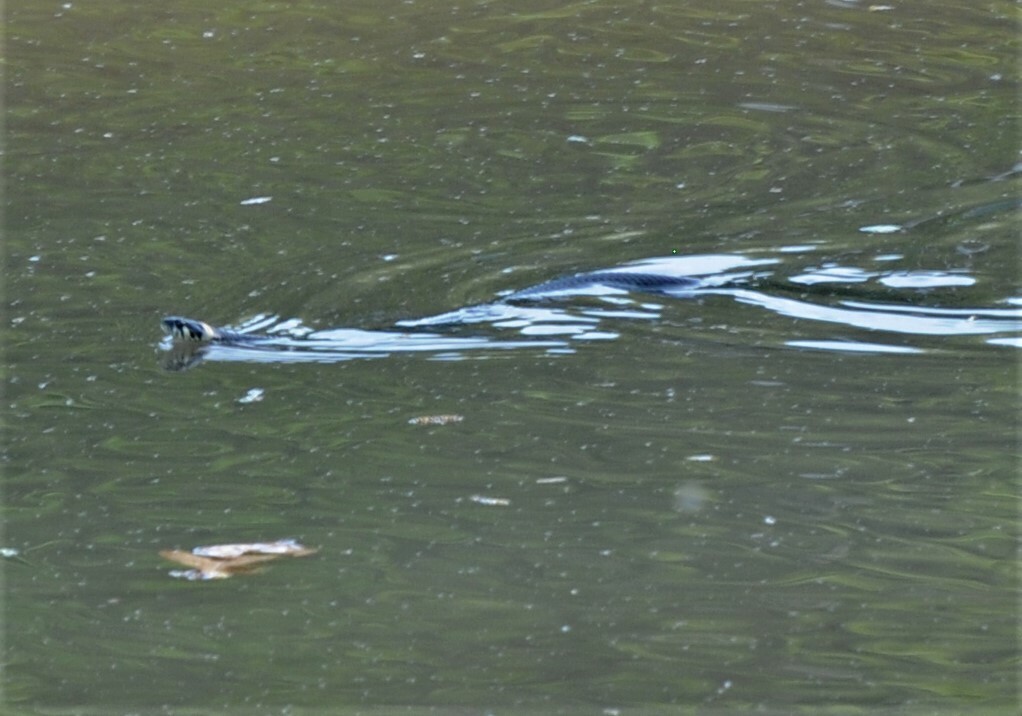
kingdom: Animalia
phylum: Chordata
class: Squamata
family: Colubridae
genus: Natrix
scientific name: Natrix natrix
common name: Grass snake
